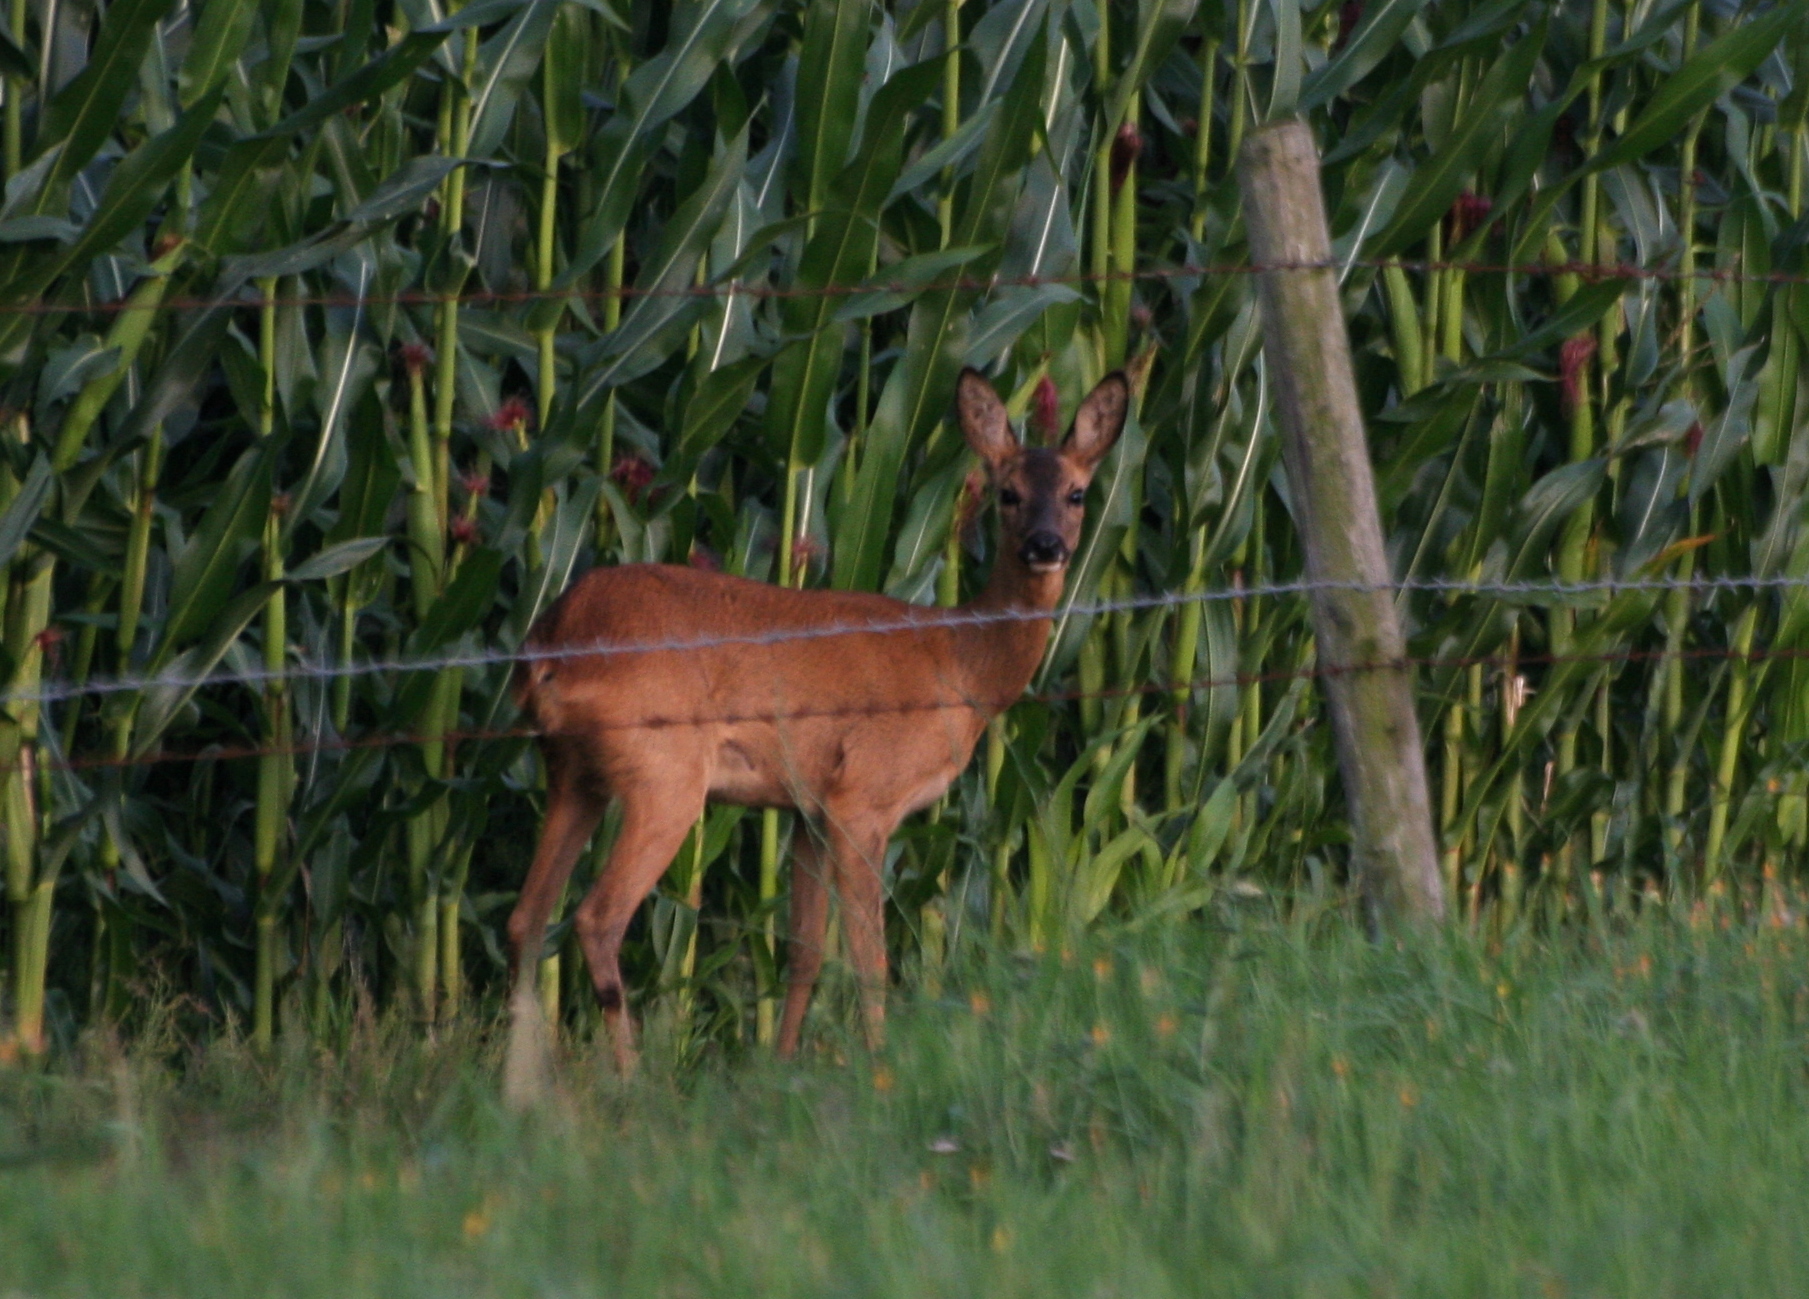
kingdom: Animalia
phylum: Chordata
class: Mammalia
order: Artiodactyla
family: Cervidae
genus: Capreolus
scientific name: Capreolus capreolus
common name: Western roe deer
